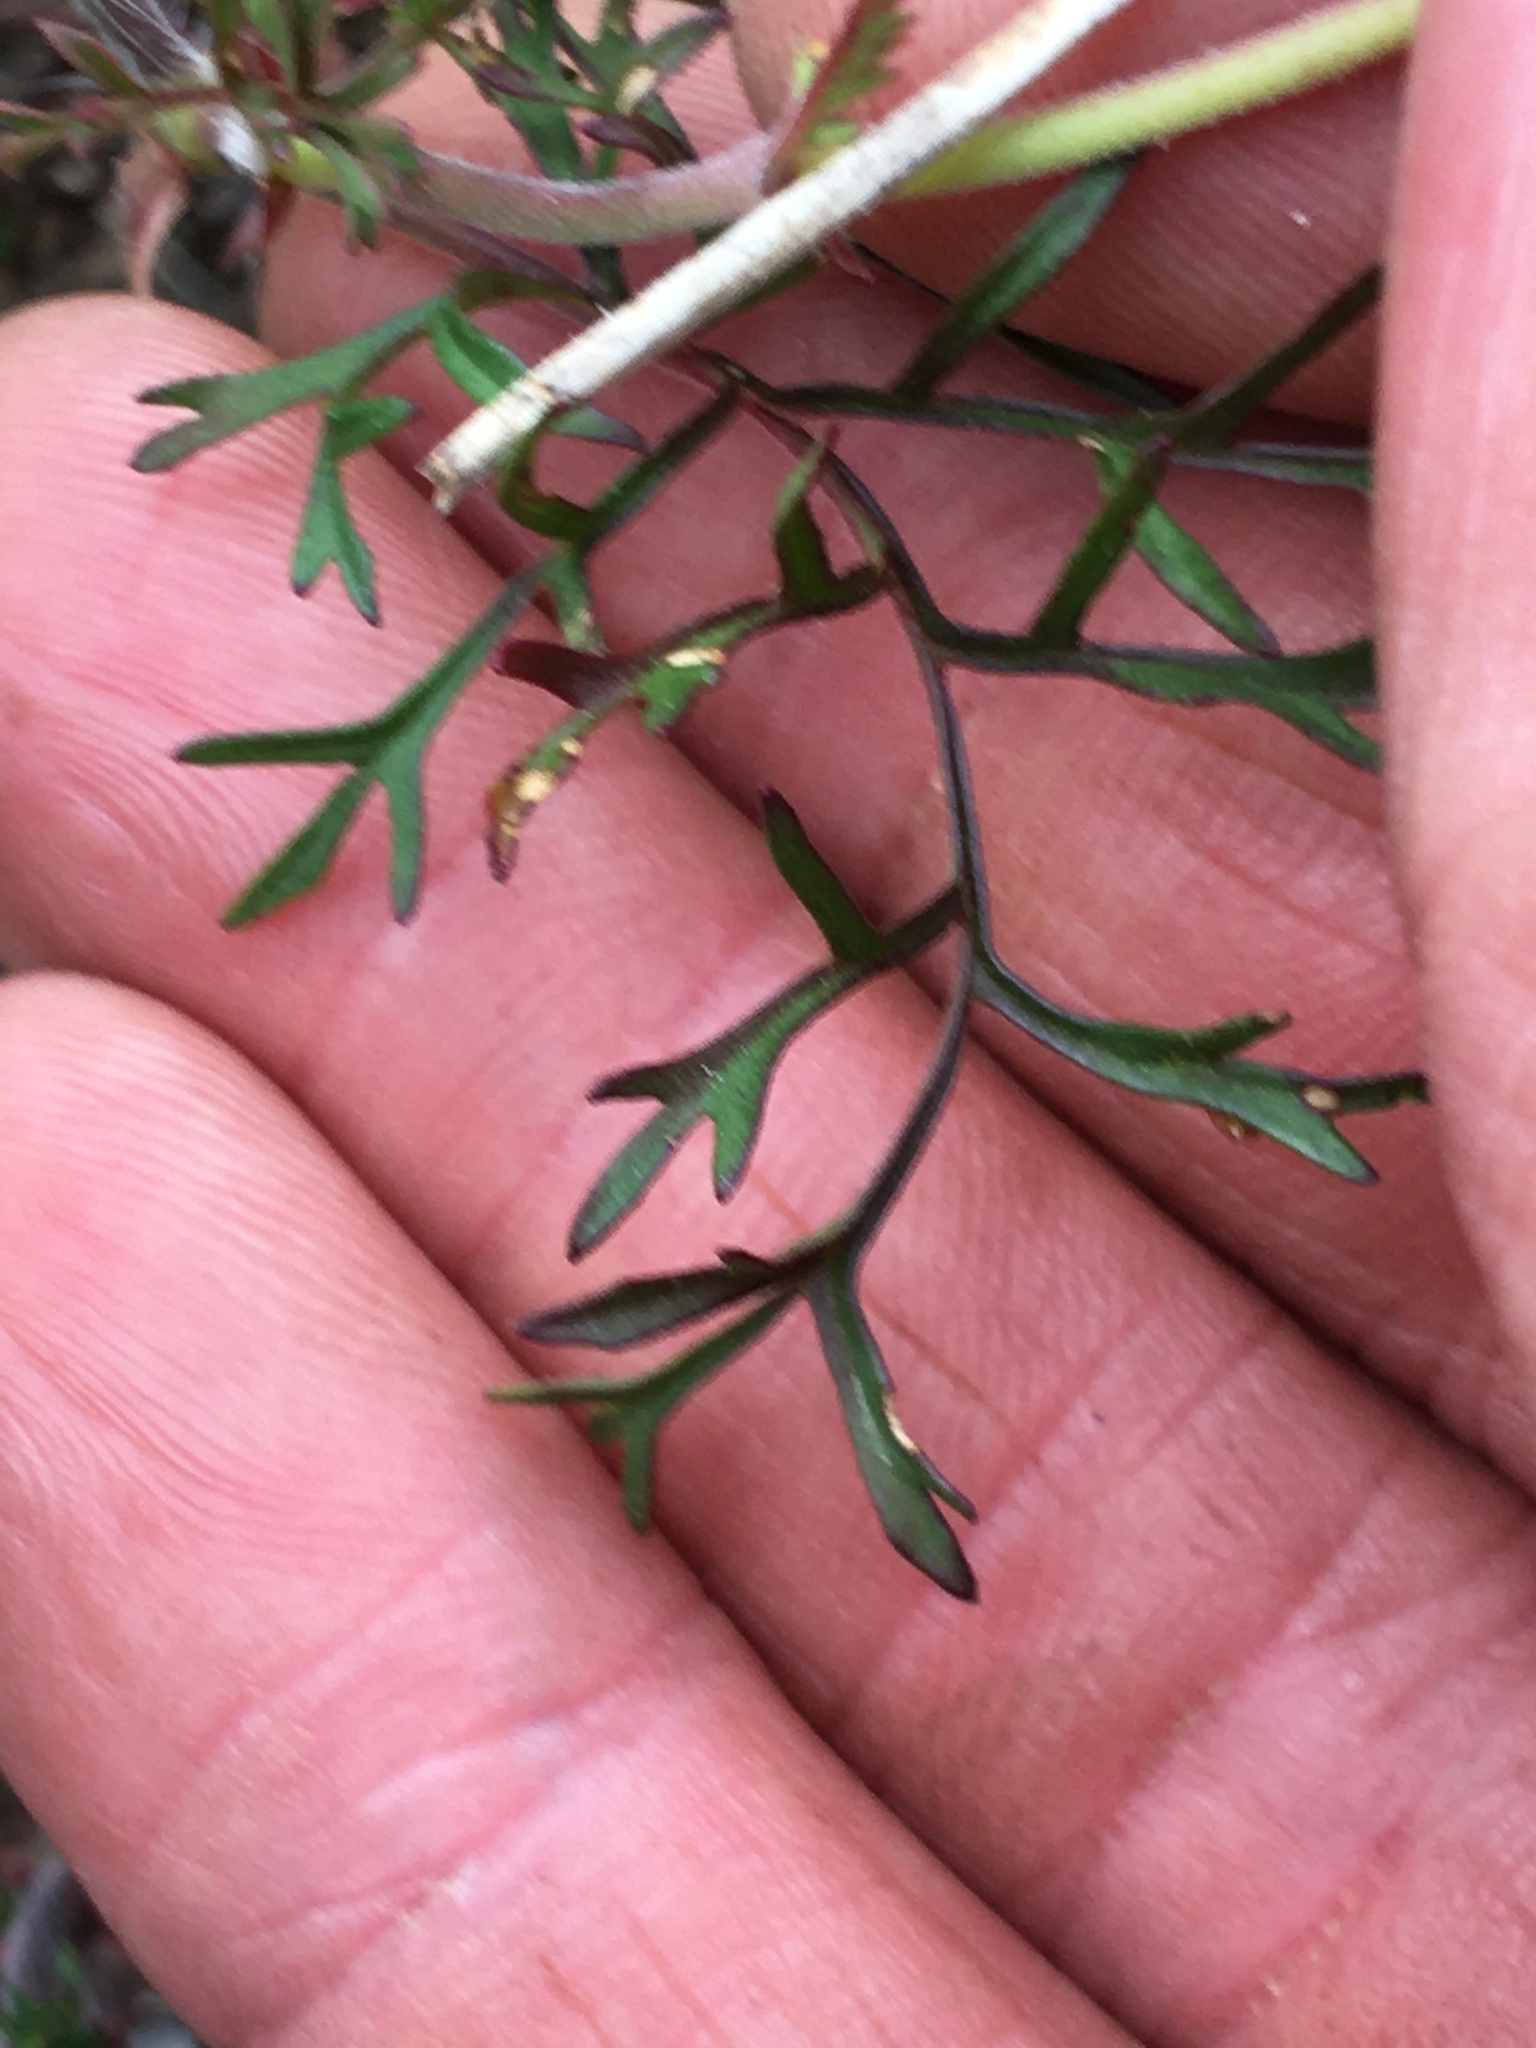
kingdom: Plantae
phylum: Tracheophyta
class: Magnoliopsida
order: Geraniales
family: Geraniaceae
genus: Pelargonium
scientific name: Pelargonium myrrhifolium
